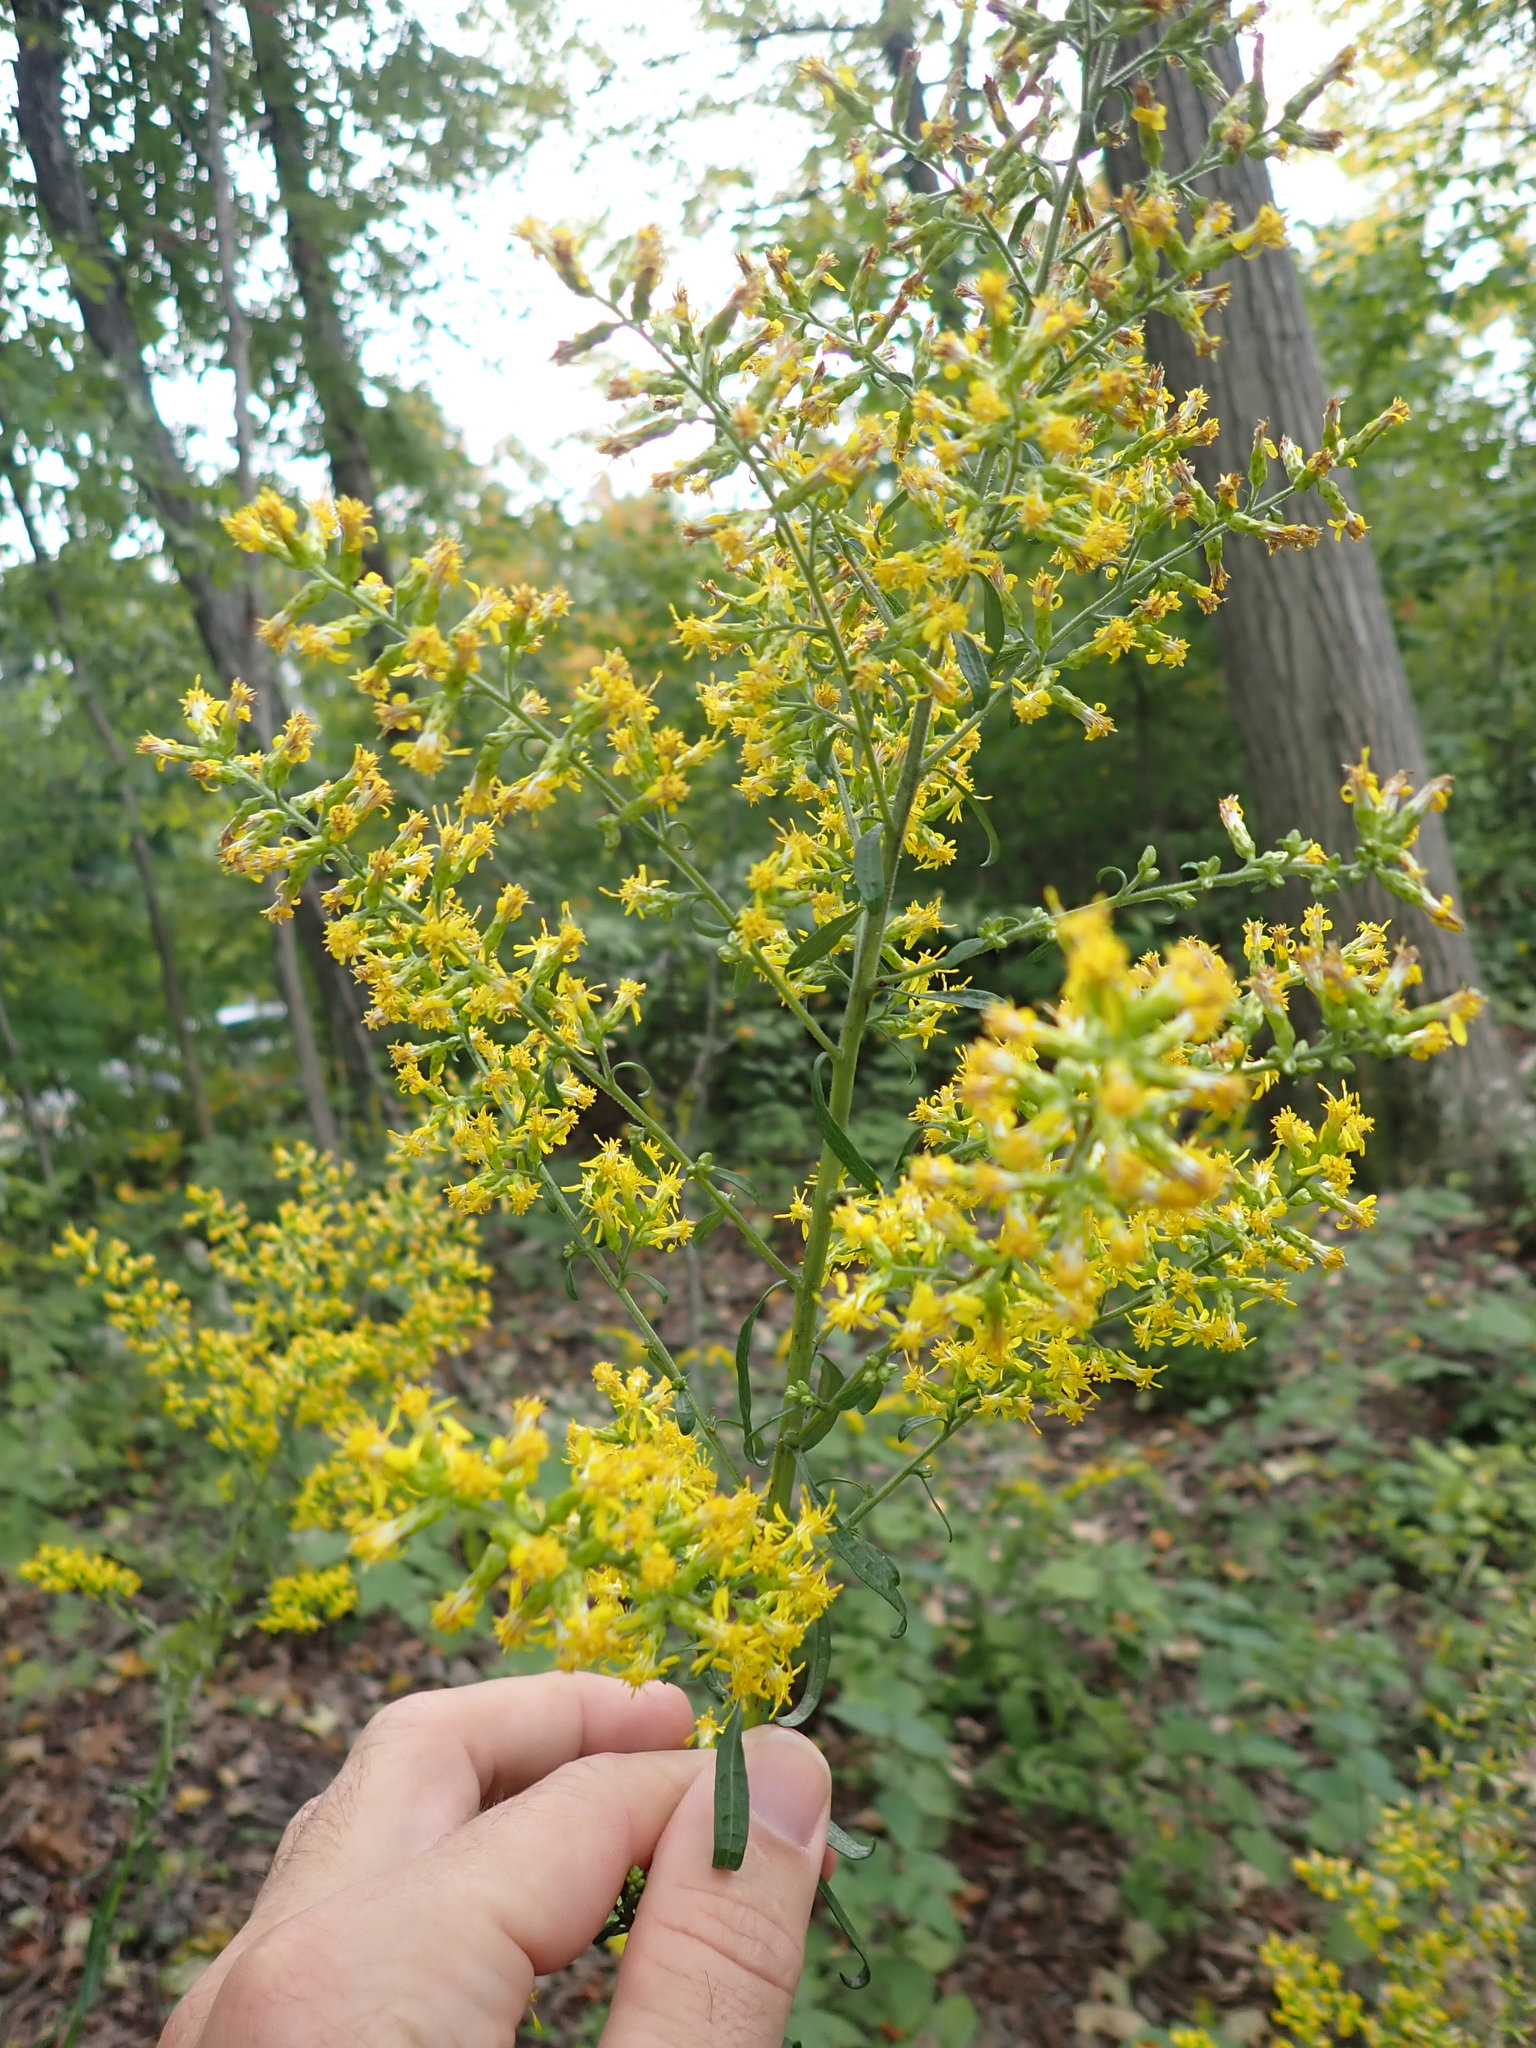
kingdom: Plantae
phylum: Tracheophyta
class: Magnoliopsida
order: Asterales
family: Asteraceae
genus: Solidago
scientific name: Solidago speciosa
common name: Showy goldenrod
